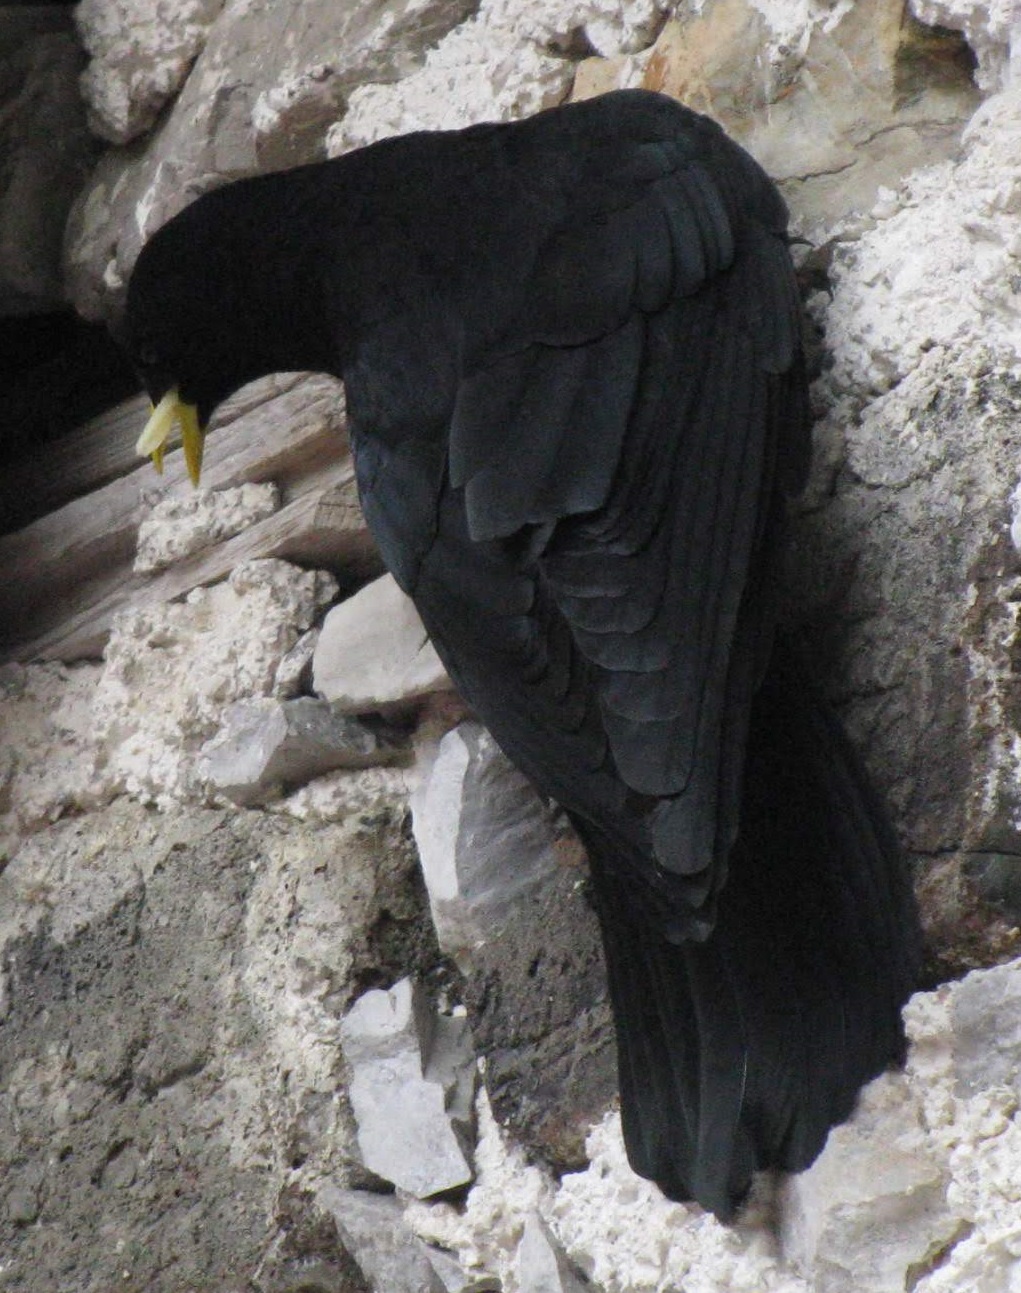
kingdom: Animalia
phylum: Chordata
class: Aves
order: Passeriformes
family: Corvidae
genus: Pyrrhocorax
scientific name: Pyrrhocorax graculus
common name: Alpine chough
